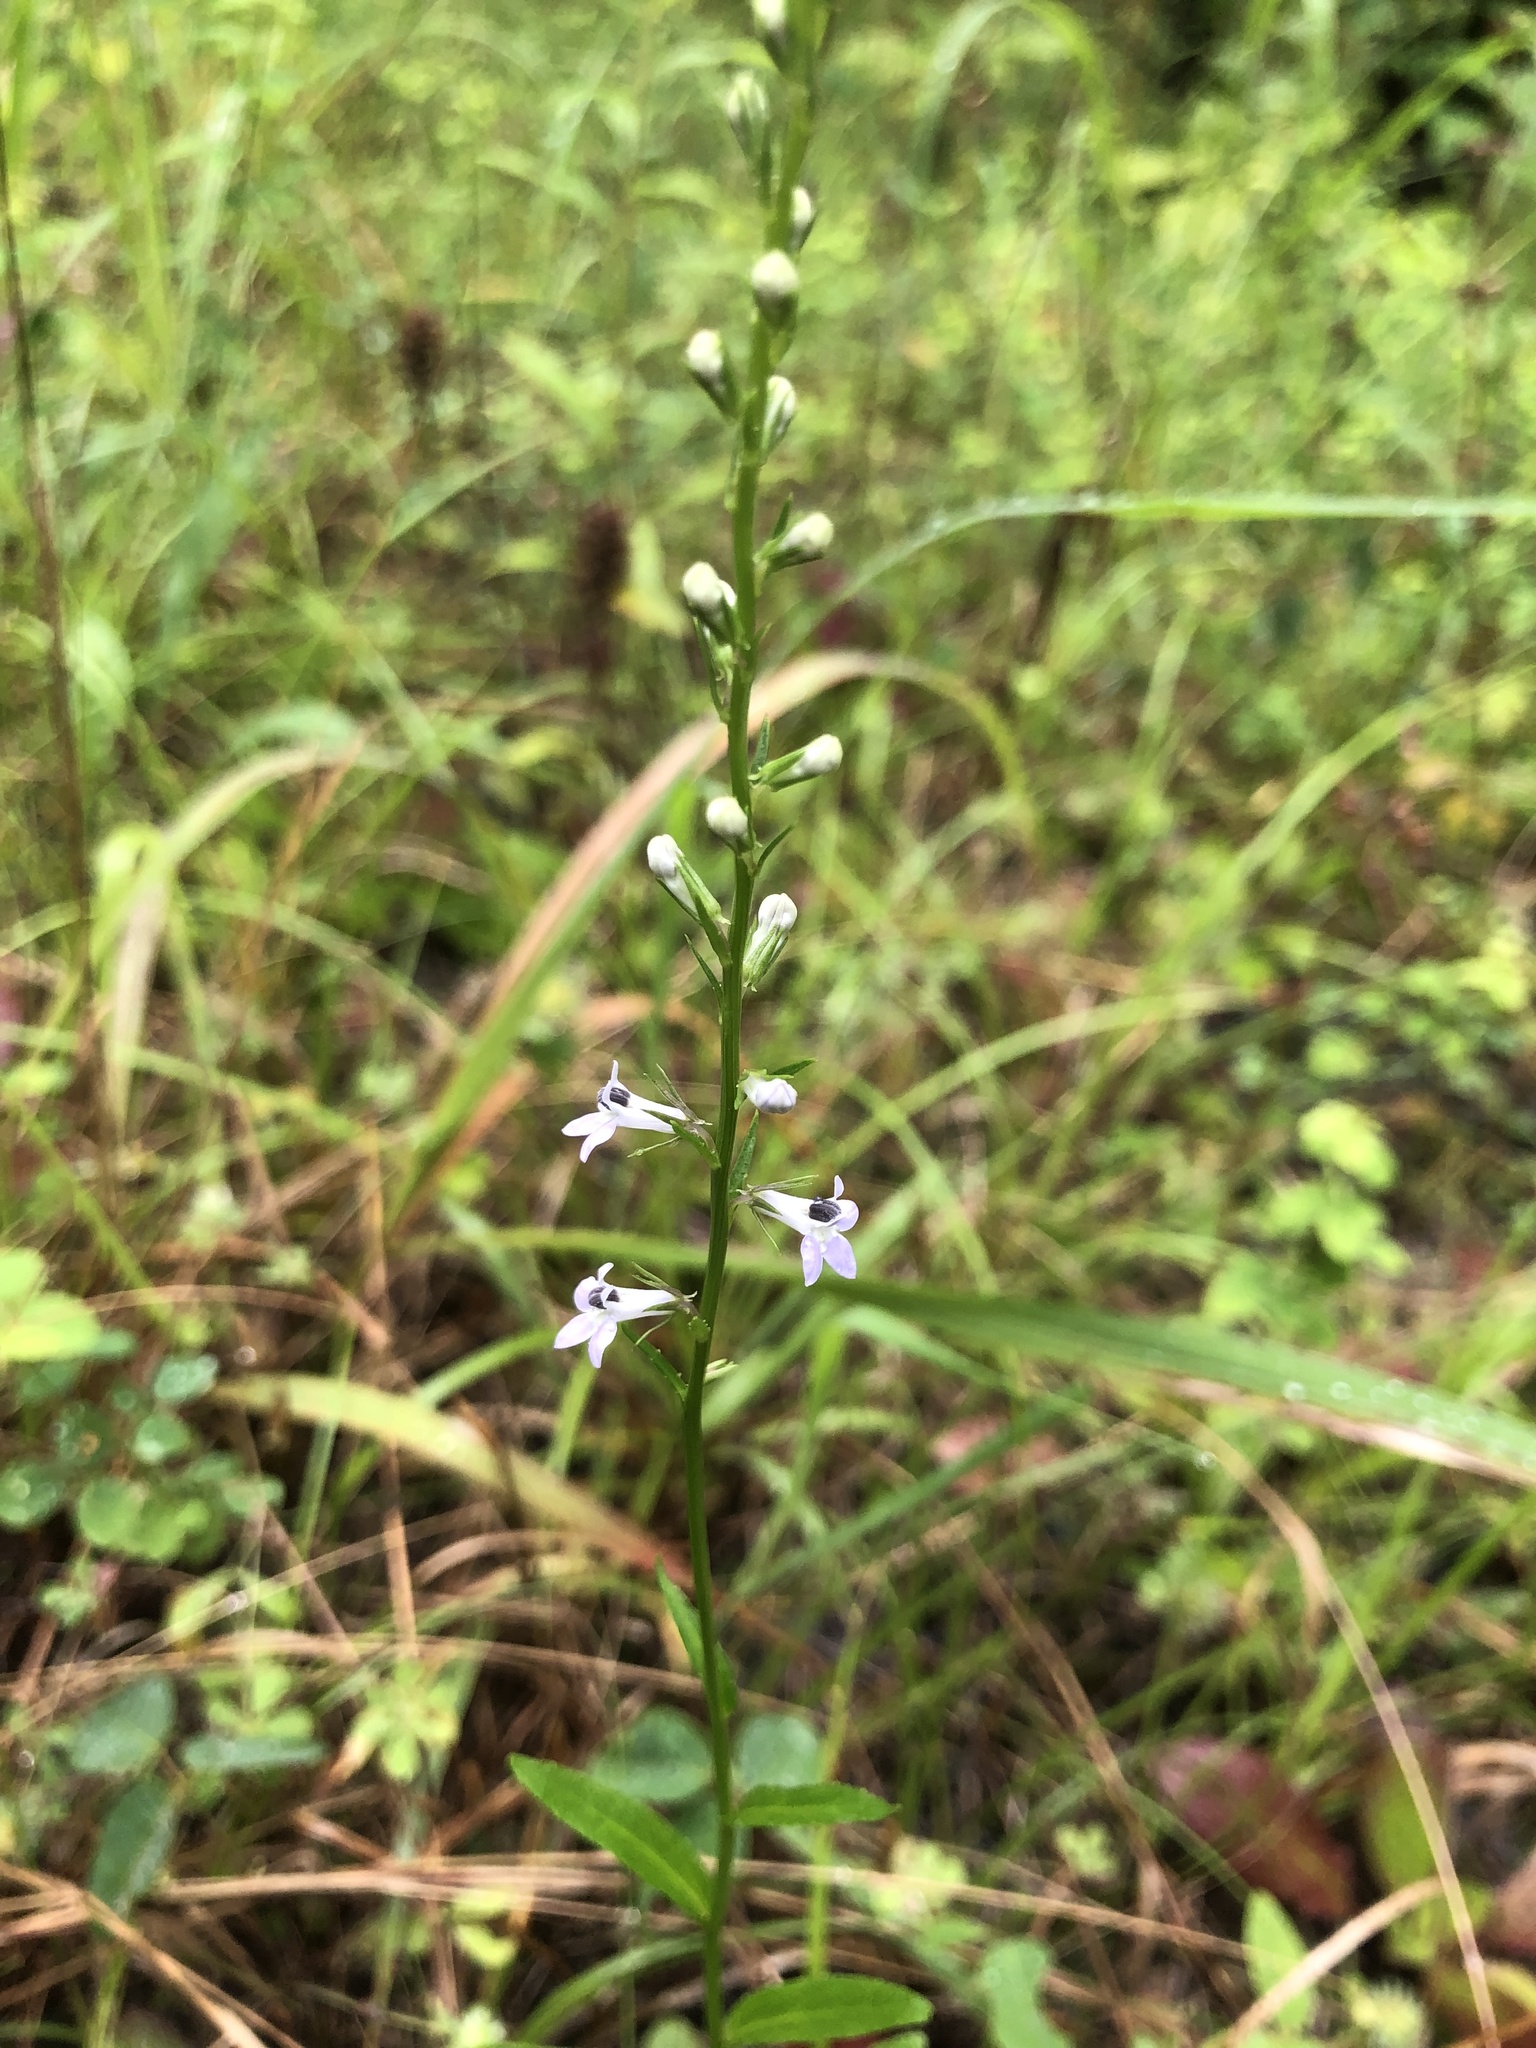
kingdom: Plantae
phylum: Tracheophyta
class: Magnoliopsida
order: Asterales
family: Campanulaceae
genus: Lobelia
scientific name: Lobelia spicata
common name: Pale-spike lobelia
